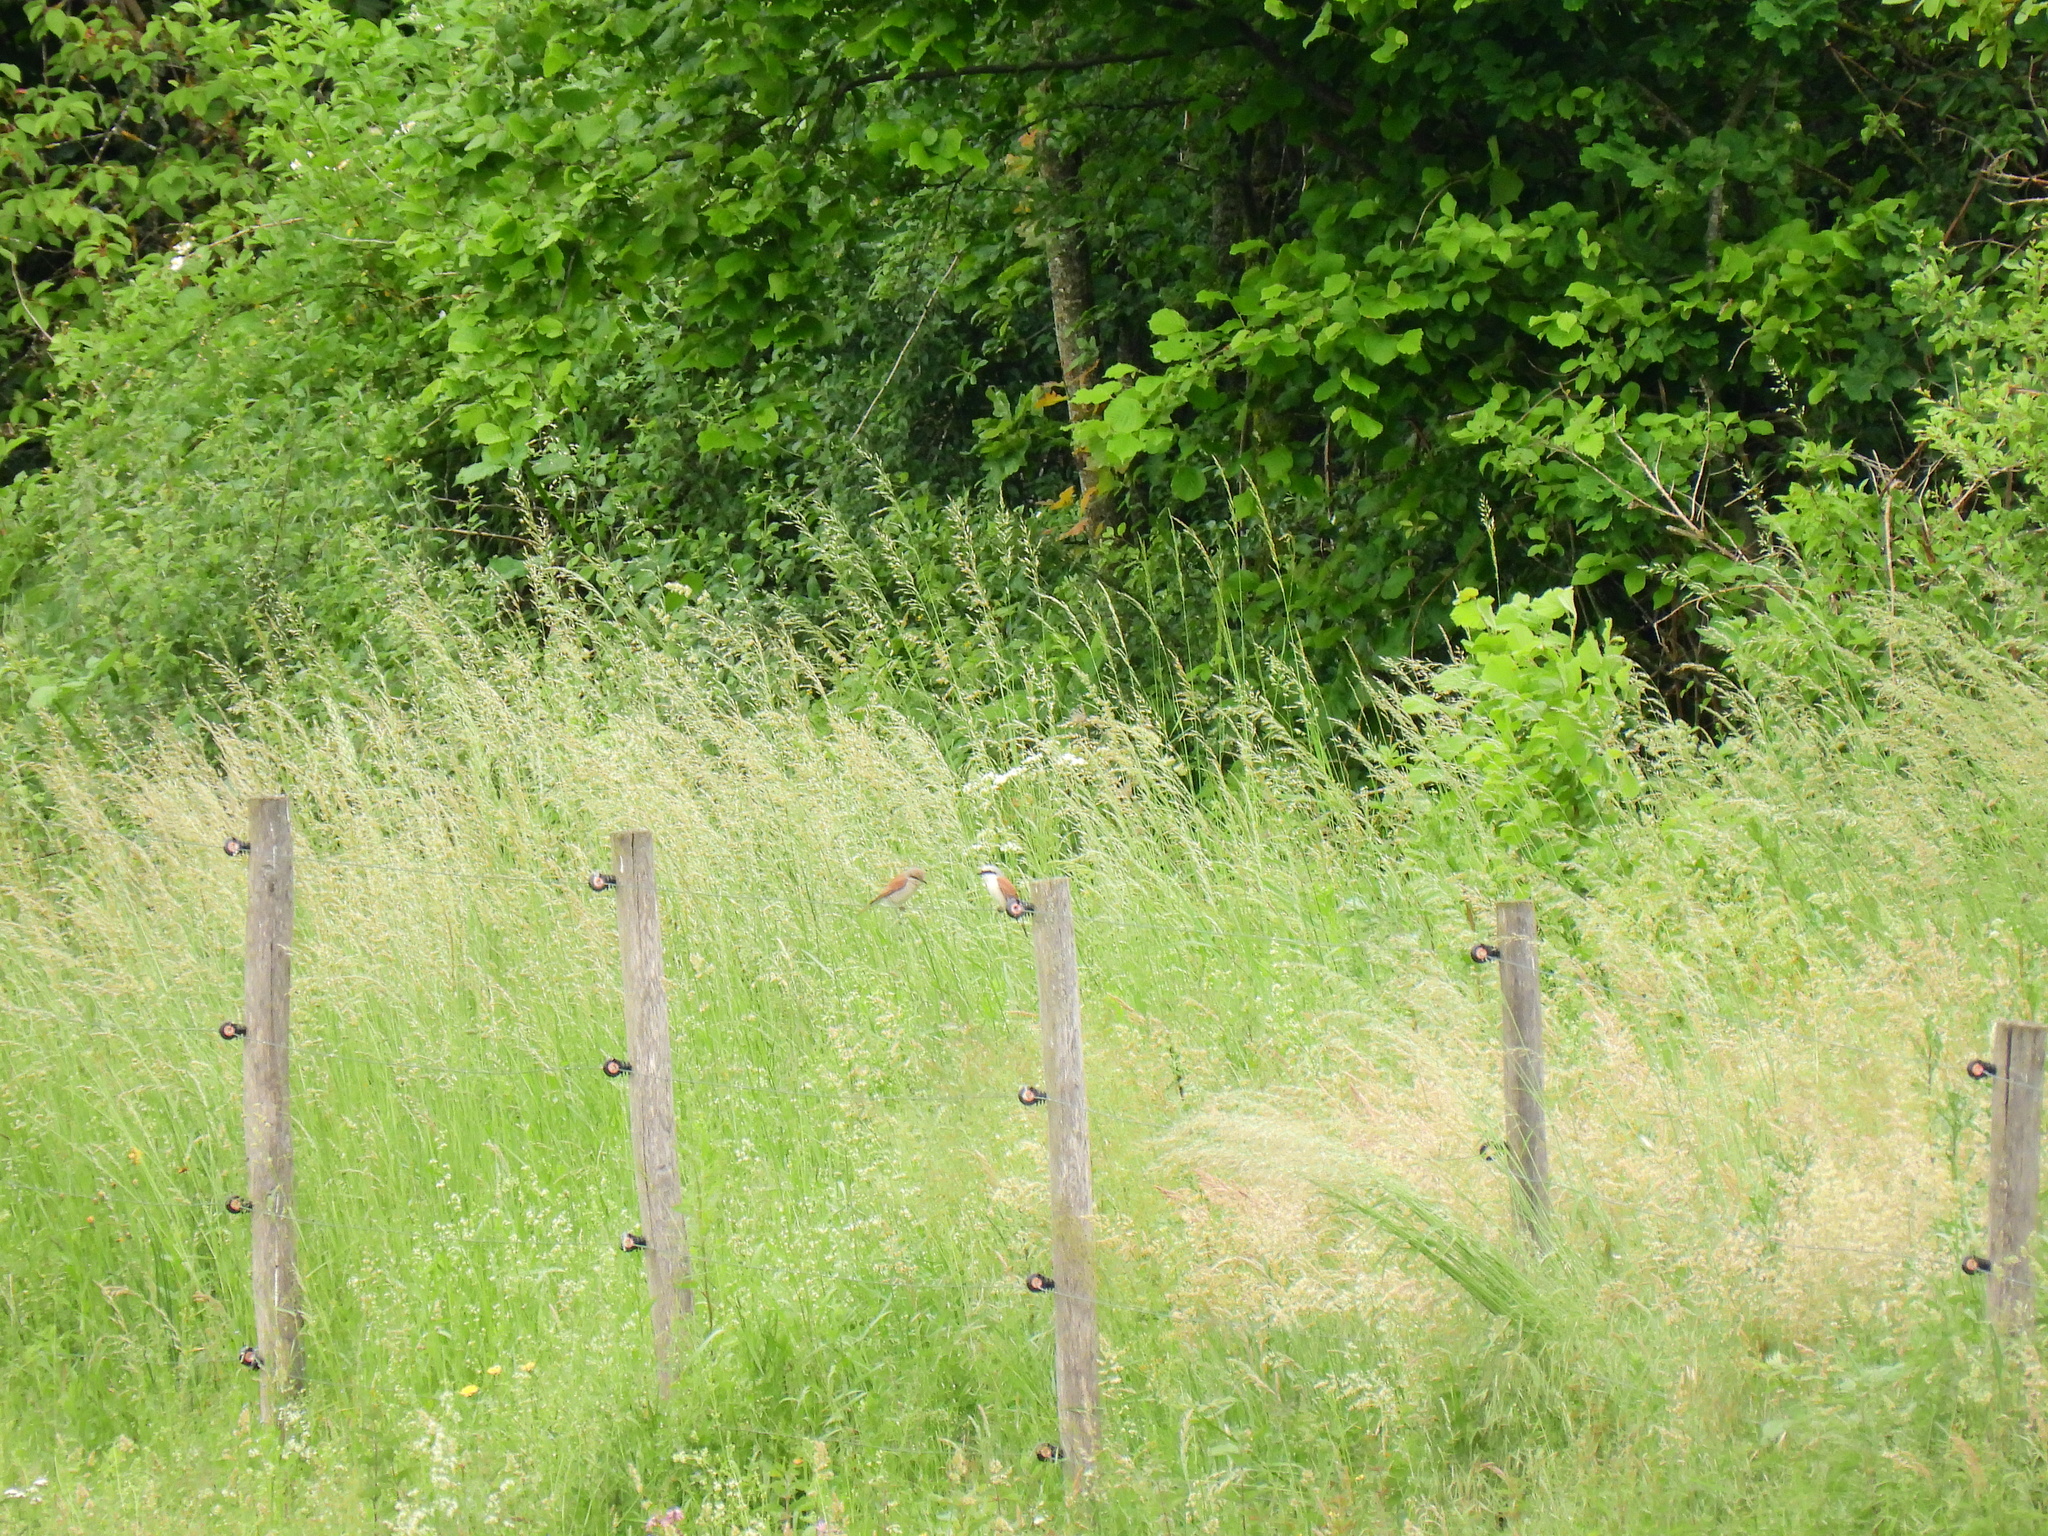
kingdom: Animalia
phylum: Chordata
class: Aves
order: Passeriformes
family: Laniidae
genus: Lanius
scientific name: Lanius collurio
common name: Red-backed shrike
